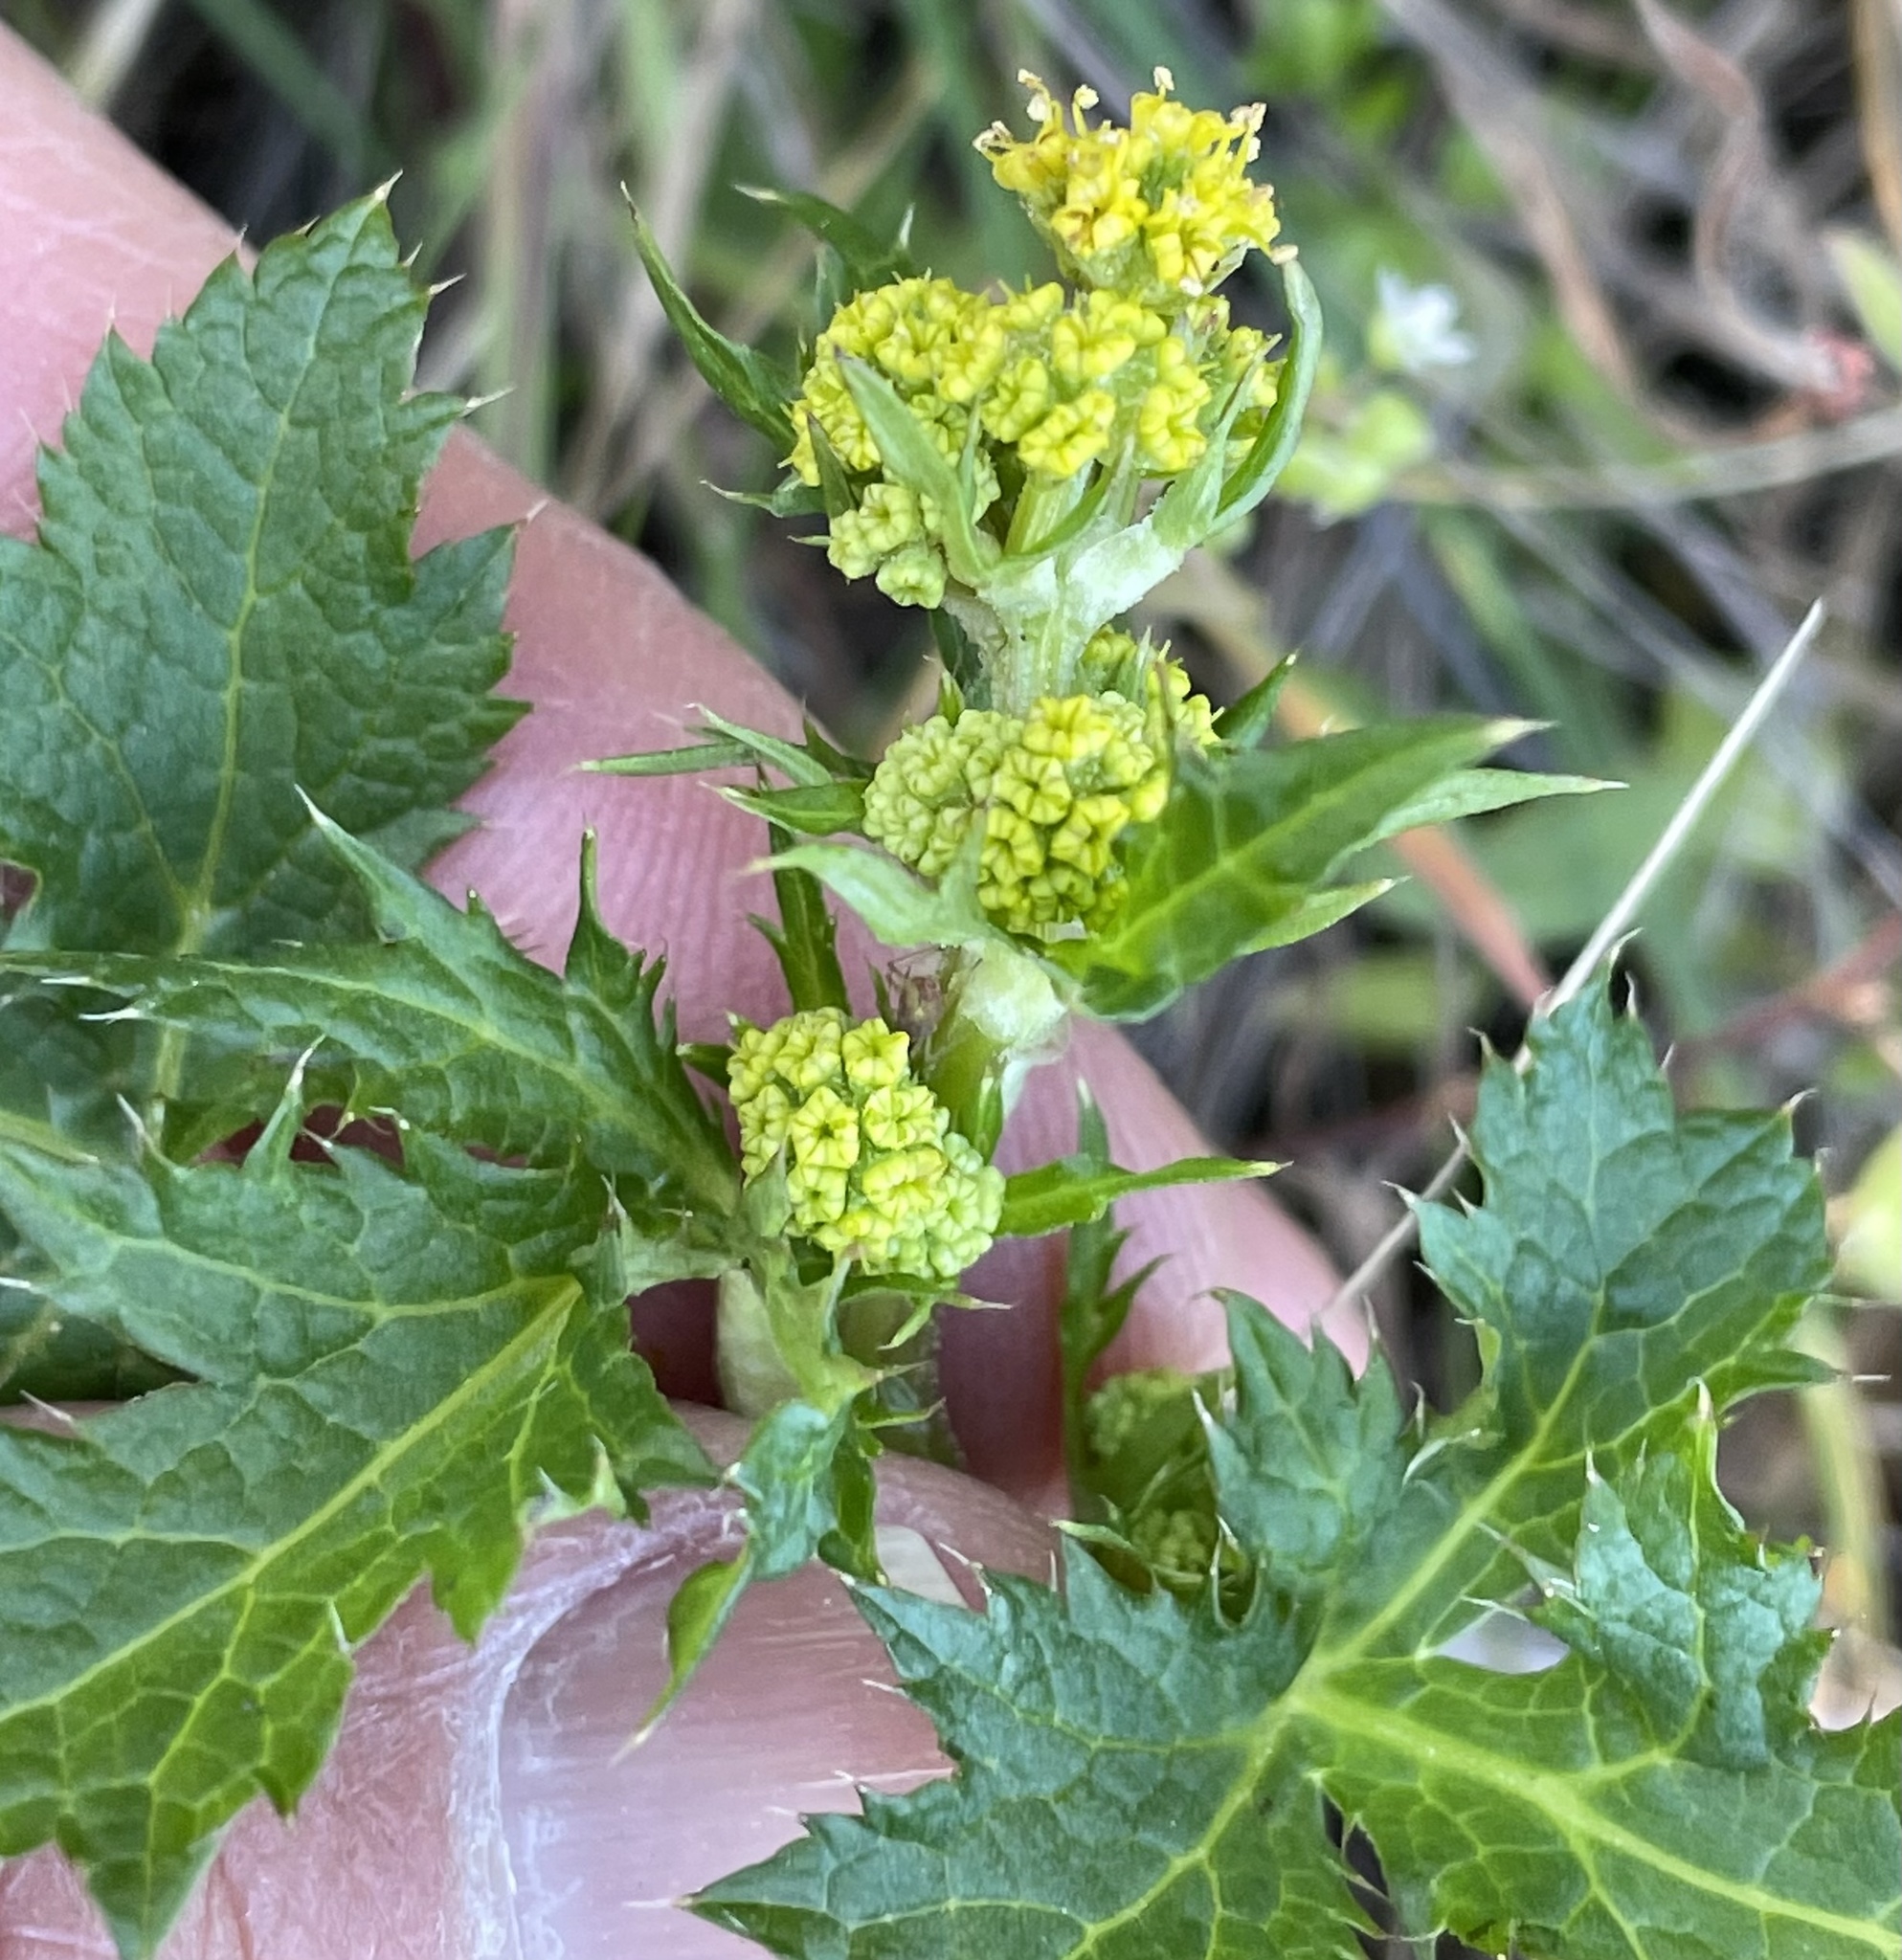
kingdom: Plantae
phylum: Tracheophyta
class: Magnoliopsida
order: Apiales
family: Apiaceae
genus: Sanicula
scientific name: Sanicula crassicaulis
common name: Western snakeroot
